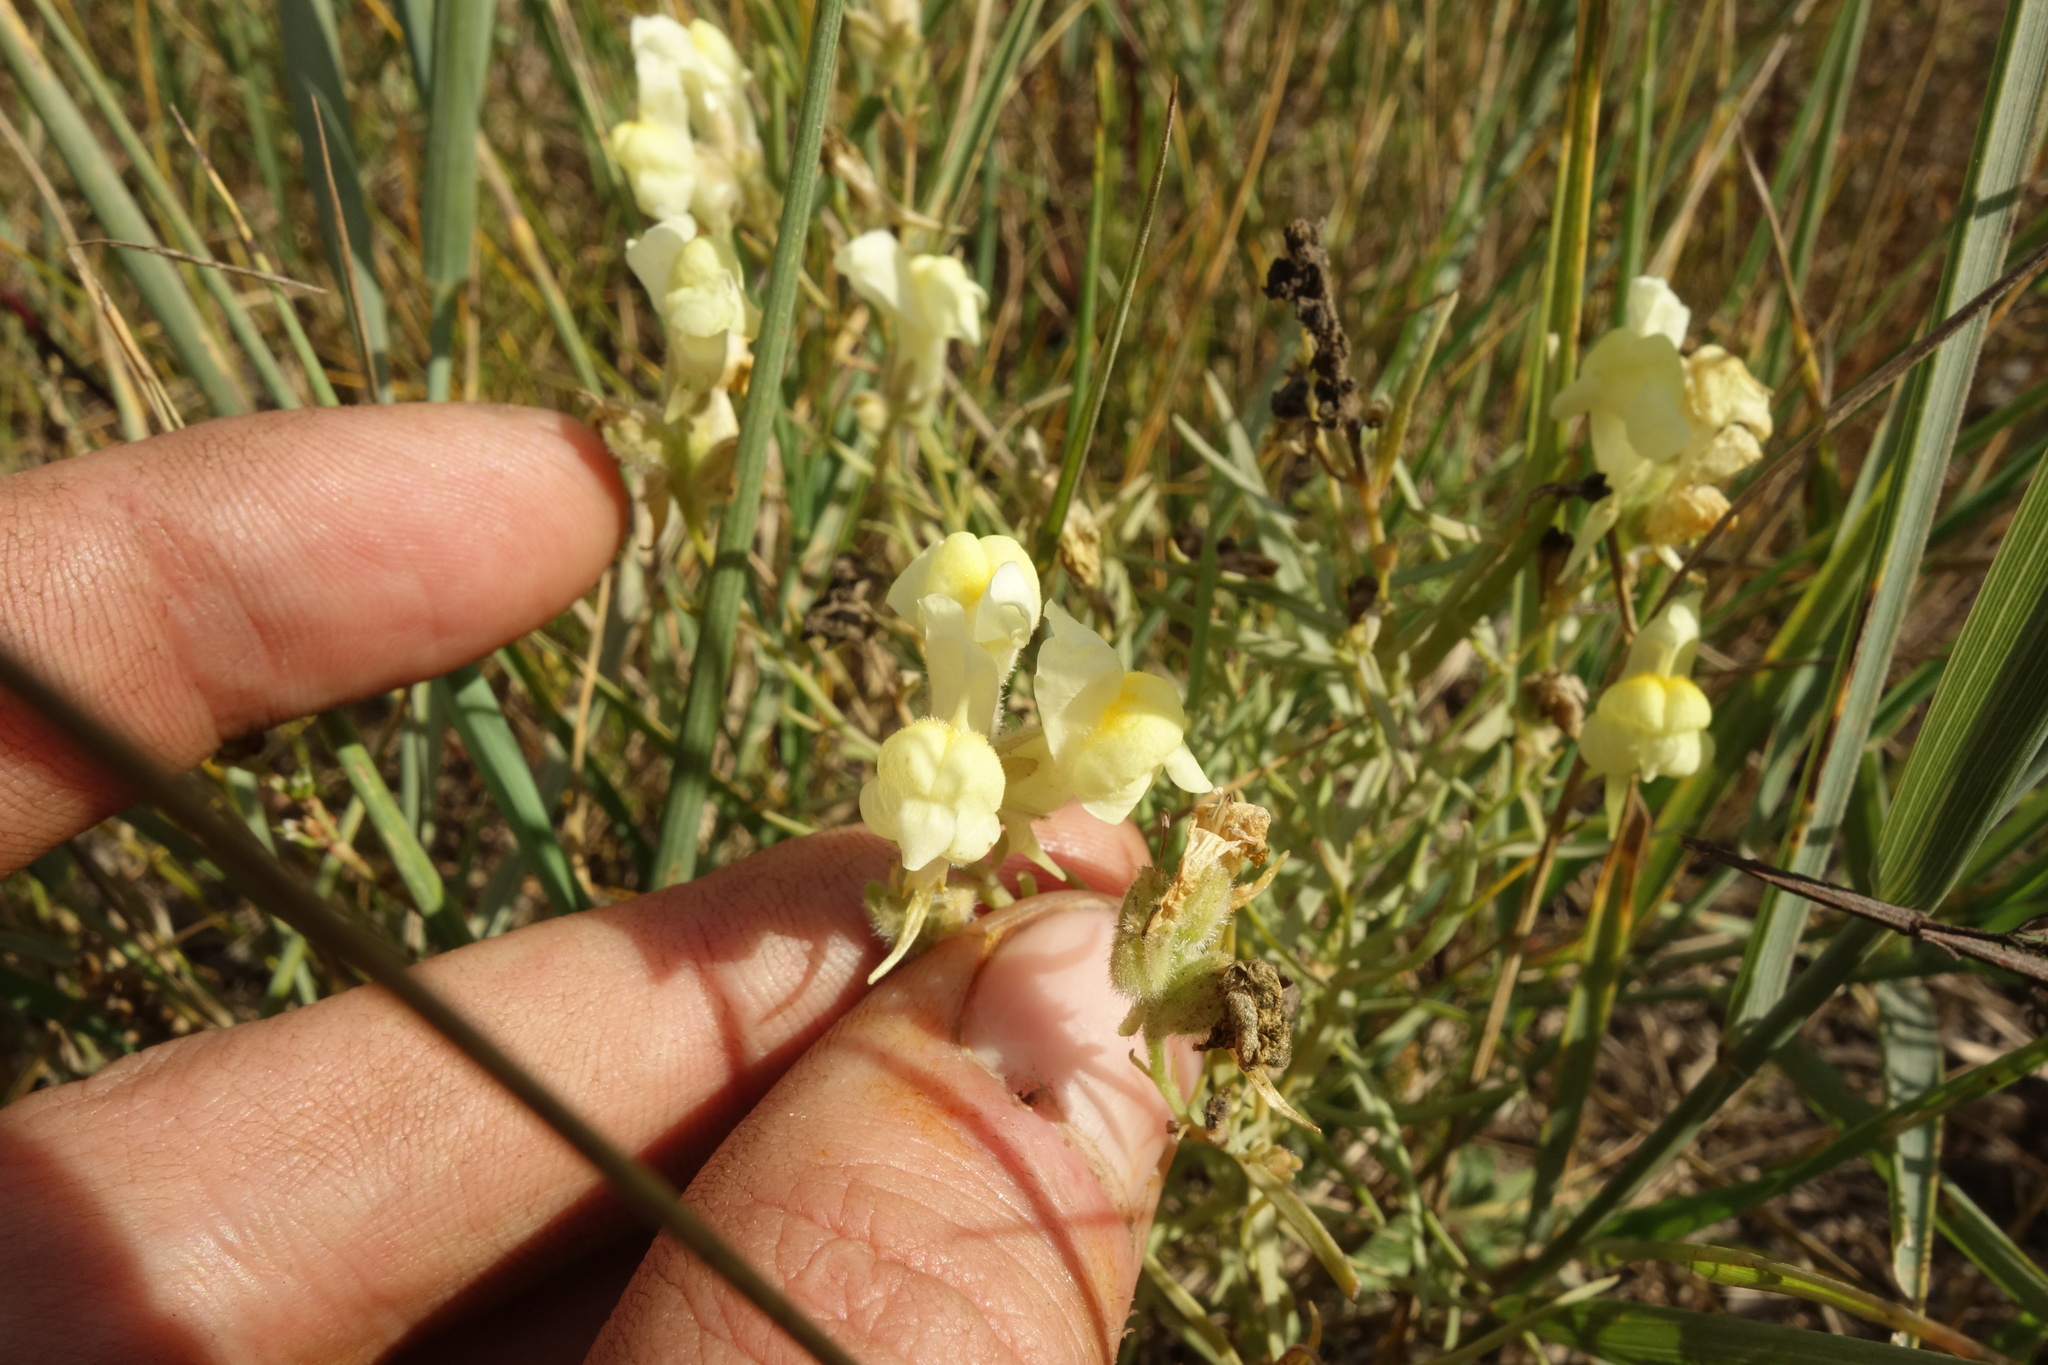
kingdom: Plantae
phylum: Tracheophyta
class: Magnoliopsida
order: Lamiales
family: Plantaginaceae
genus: Linaria
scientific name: Linaria buriatica
